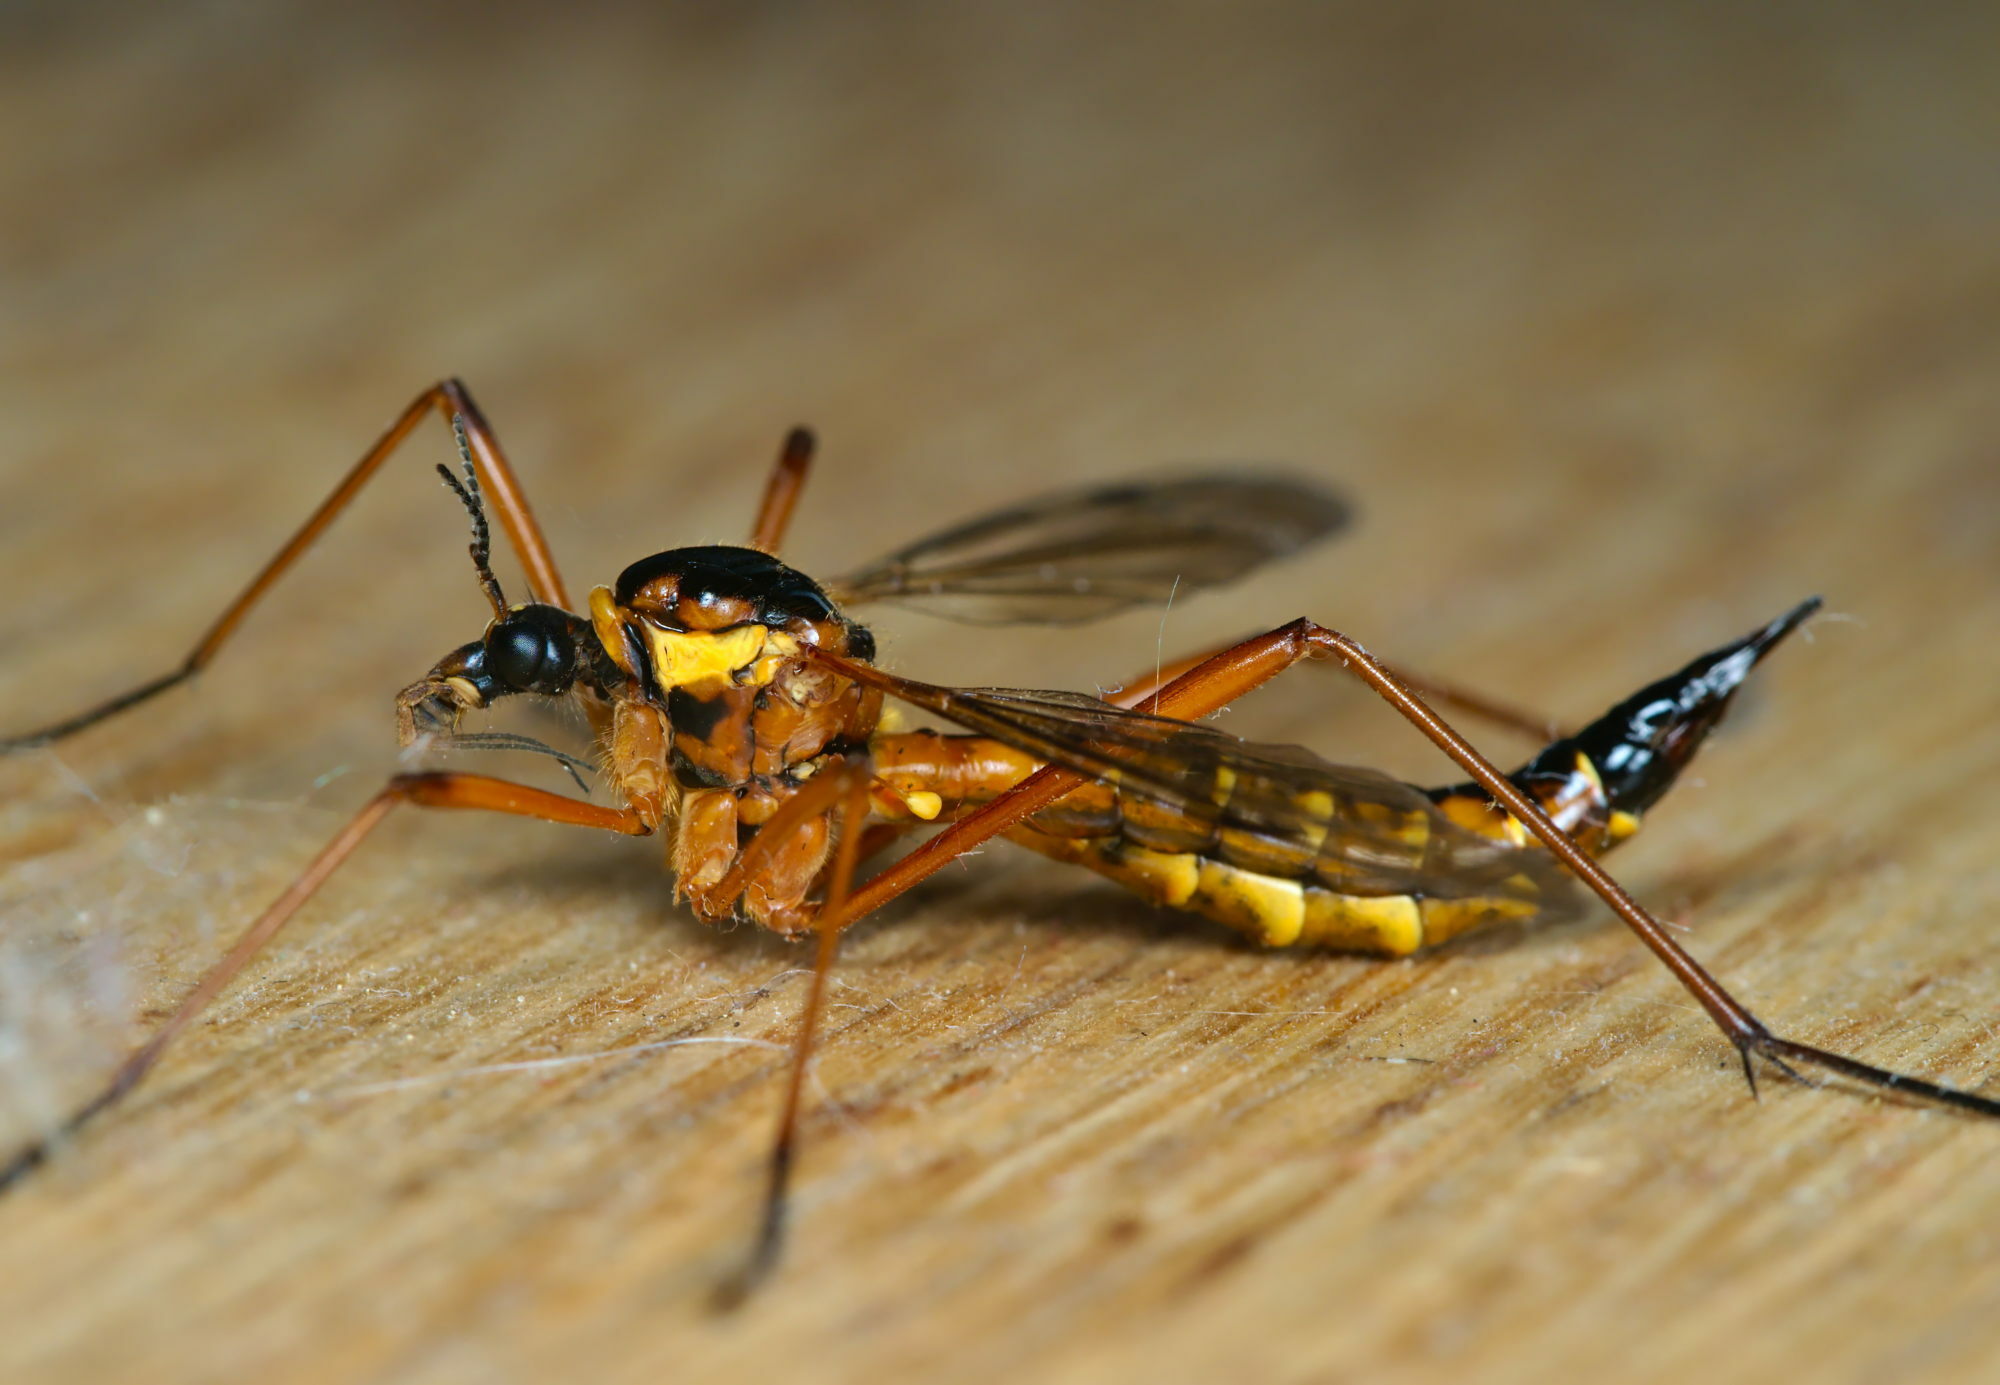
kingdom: Animalia
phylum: Arthropoda
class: Insecta
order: Diptera
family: Tipulidae
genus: Ctenophora
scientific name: Ctenophora pectinicornis
